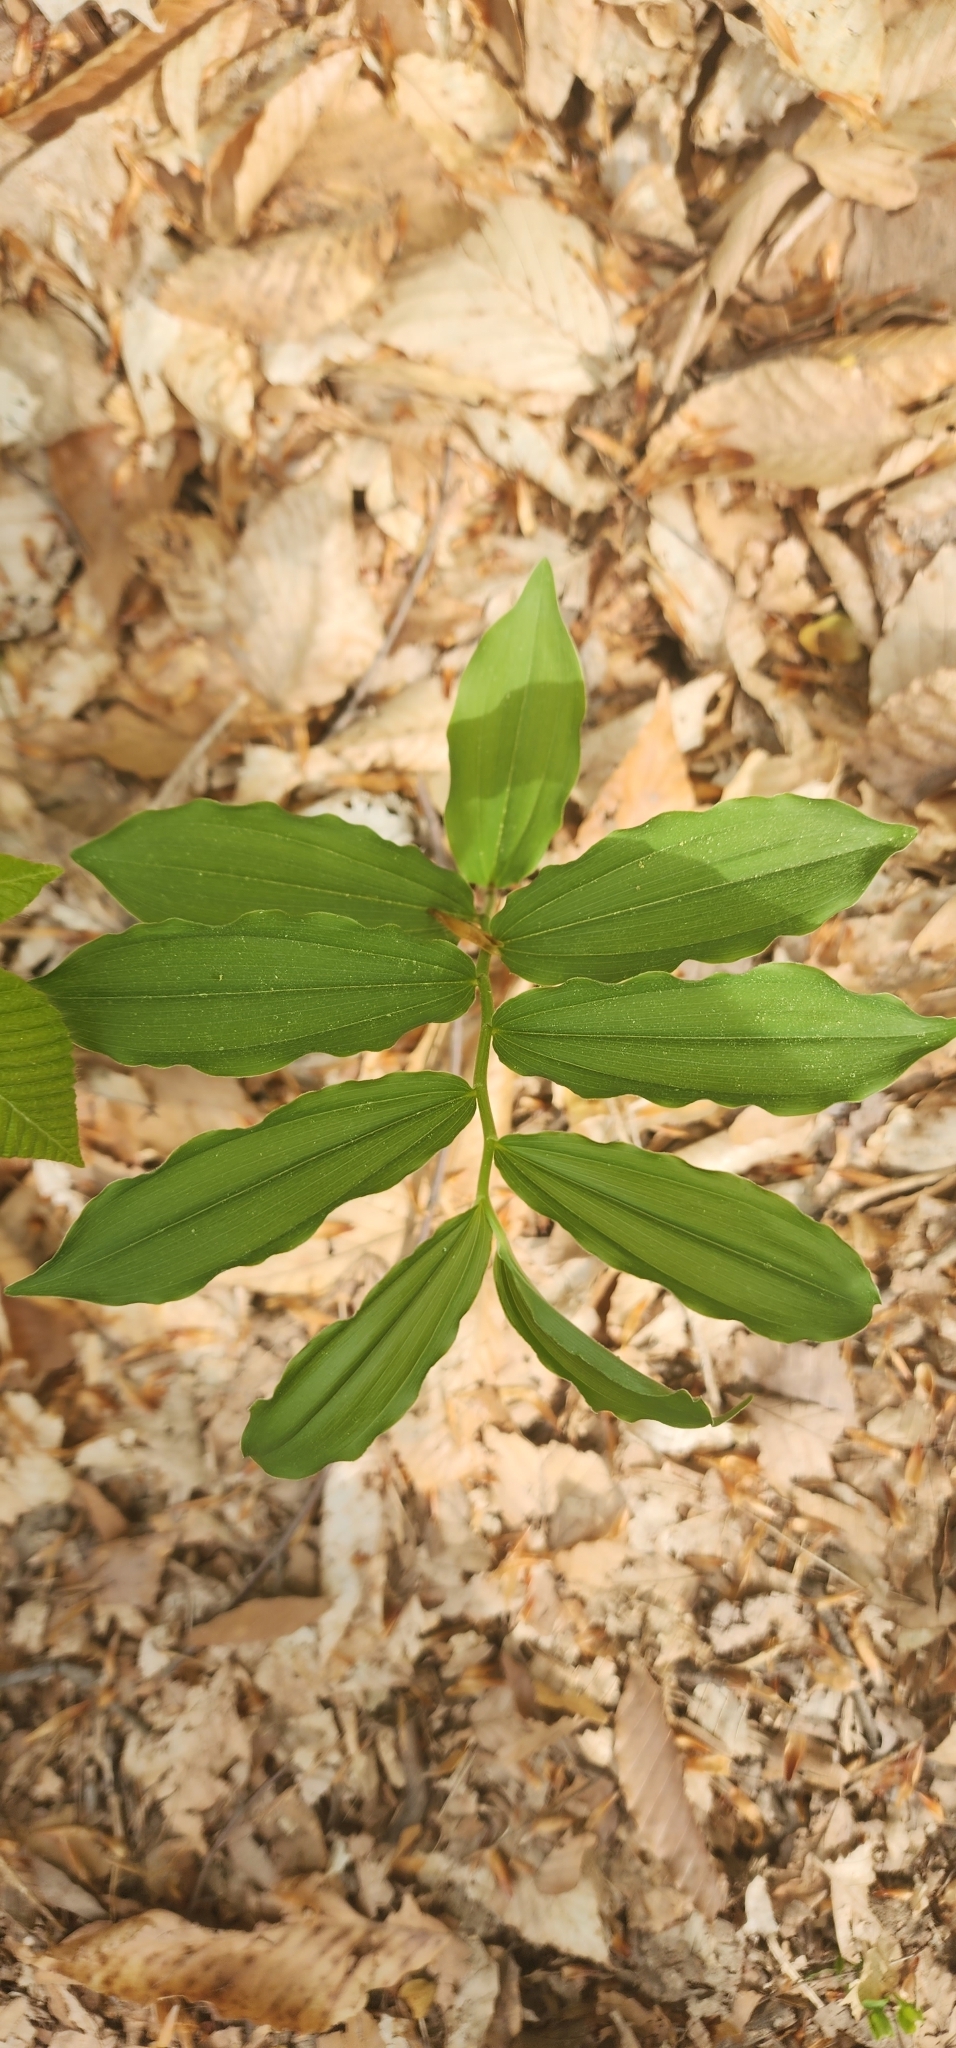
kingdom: Plantae
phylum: Tracheophyta
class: Liliopsida
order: Asparagales
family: Asparagaceae
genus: Maianthemum
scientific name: Maianthemum racemosum
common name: False spikenard
